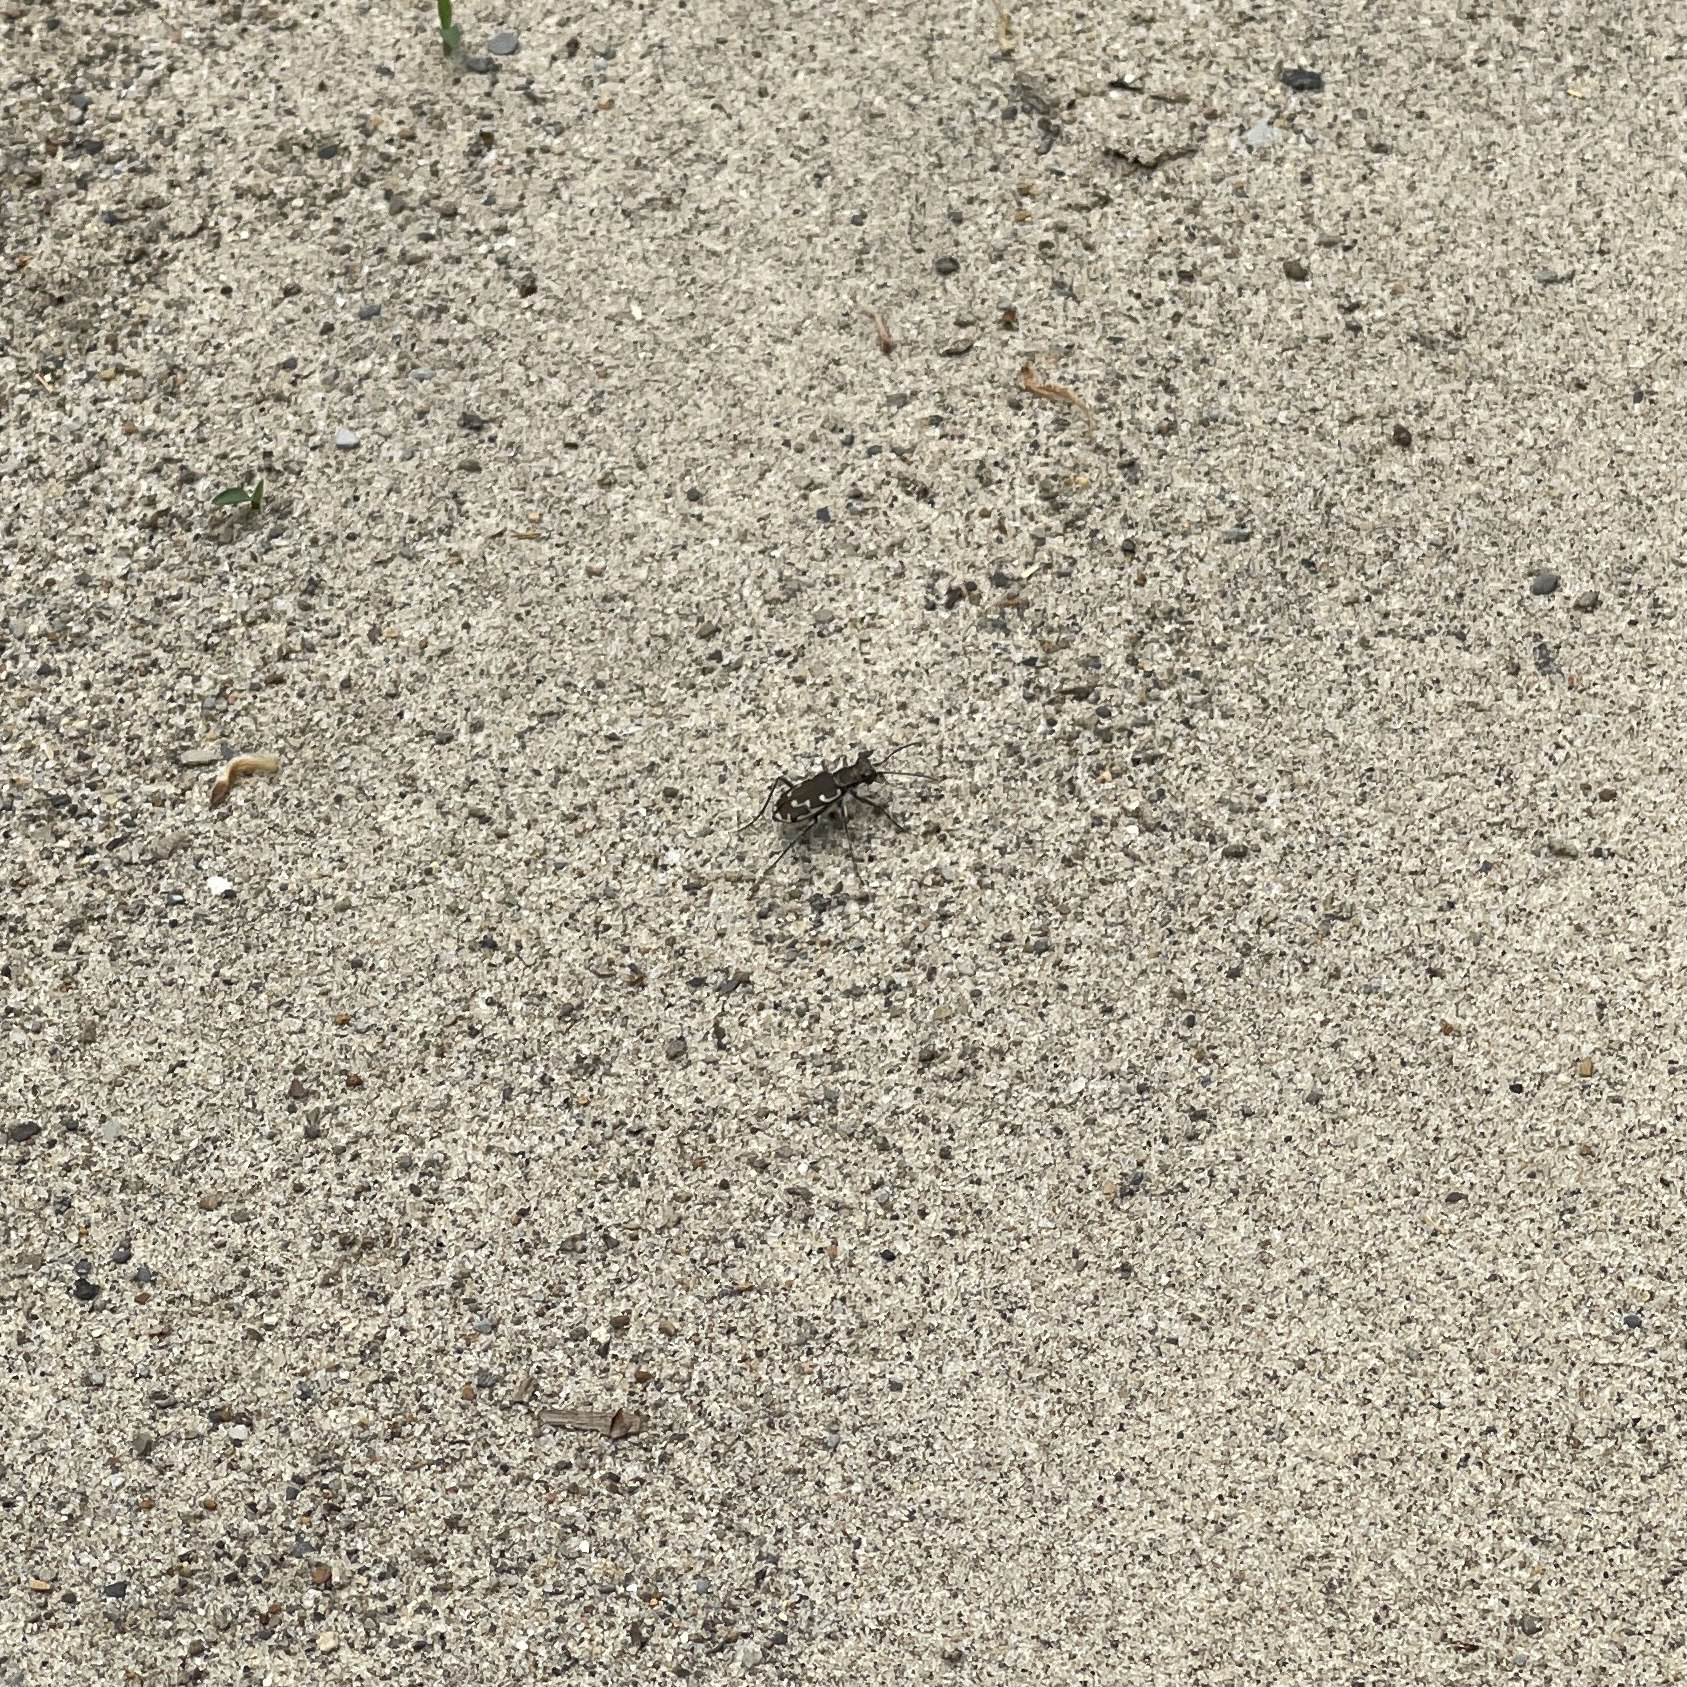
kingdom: Animalia
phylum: Arthropoda
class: Insecta
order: Coleoptera
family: Carabidae
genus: Cicindela
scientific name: Cicindela repanda
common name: Bronzed tiger beetle
